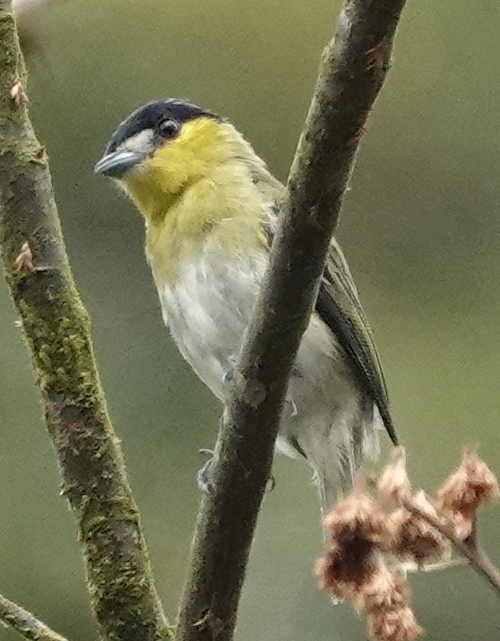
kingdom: Animalia
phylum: Chordata
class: Aves
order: Passeriformes
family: Cotingidae
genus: Pachyramphus
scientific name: Pachyramphus viridis
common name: Green-backed becard
